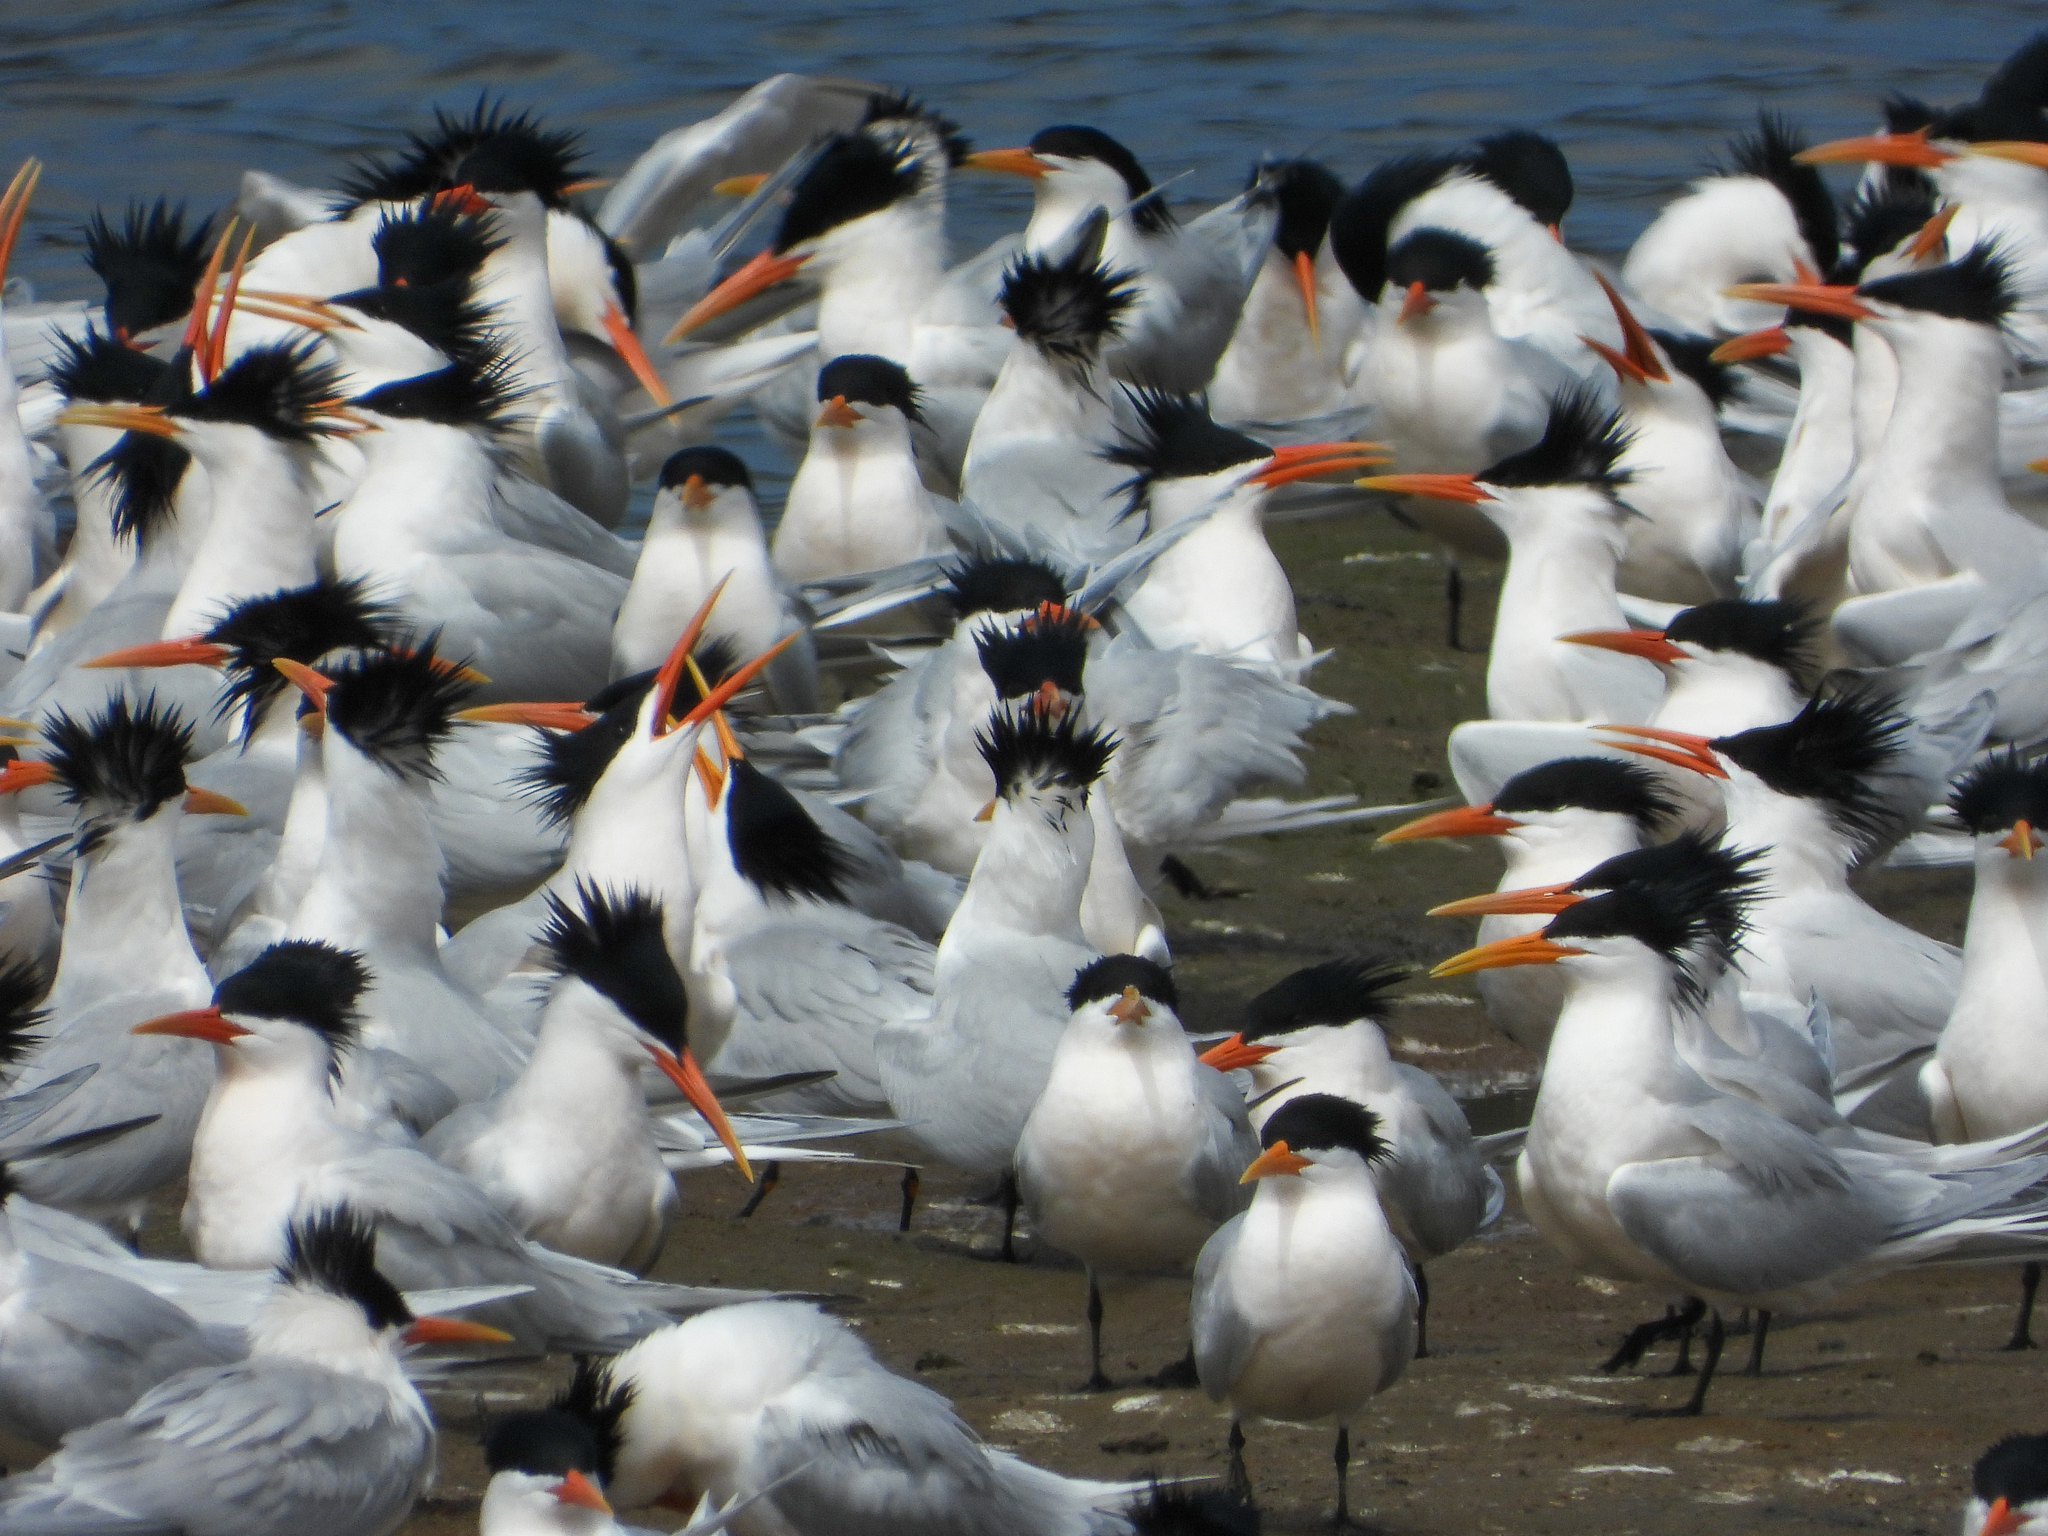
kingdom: Animalia
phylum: Chordata
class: Aves
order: Charadriiformes
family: Laridae
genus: Thalasseus
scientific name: Thalasseus elegans
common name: Elegant tern
